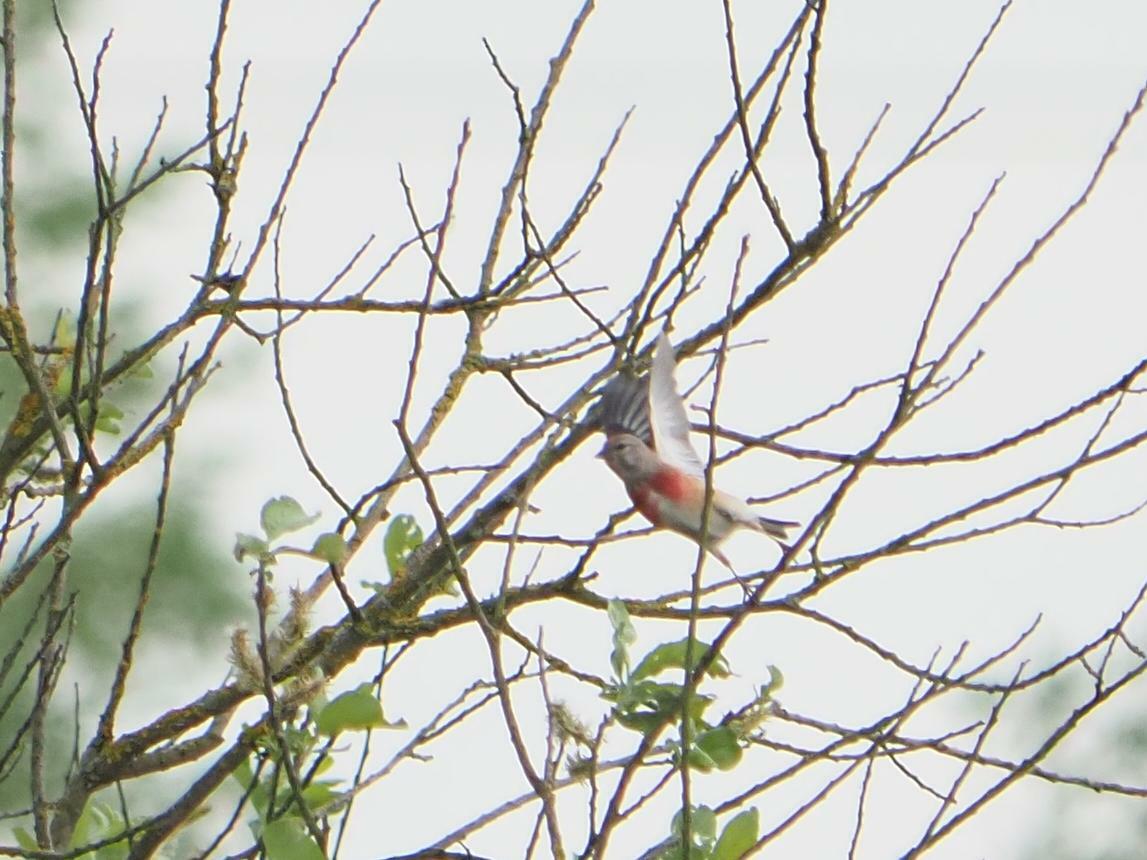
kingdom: Animalia
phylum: Chordata
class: Aves
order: Passeriformes
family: Fringillidae
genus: Linaria
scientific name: Linaria cannabina
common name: Common linnet
